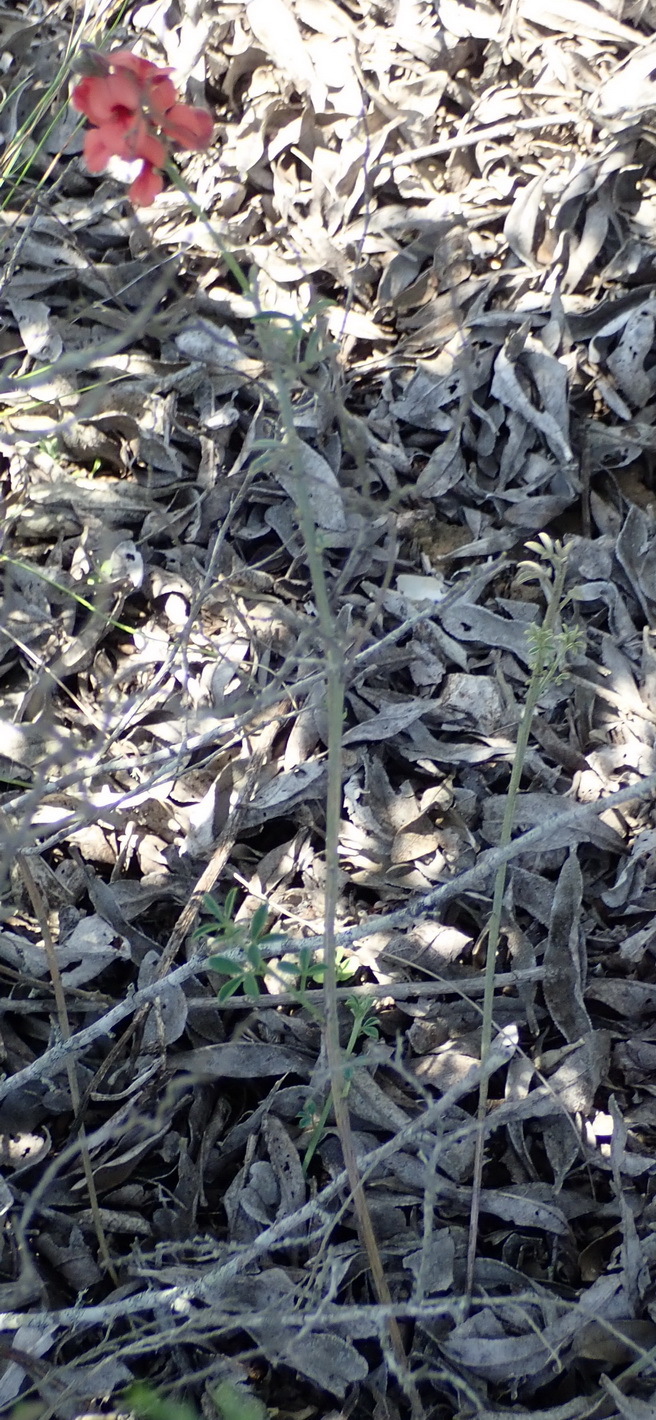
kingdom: Plantae
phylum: Tracheophyta
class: Magnoliopsida
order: Fabales
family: Fabaceae
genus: Indigofera
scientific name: Indigofera heterophylla
